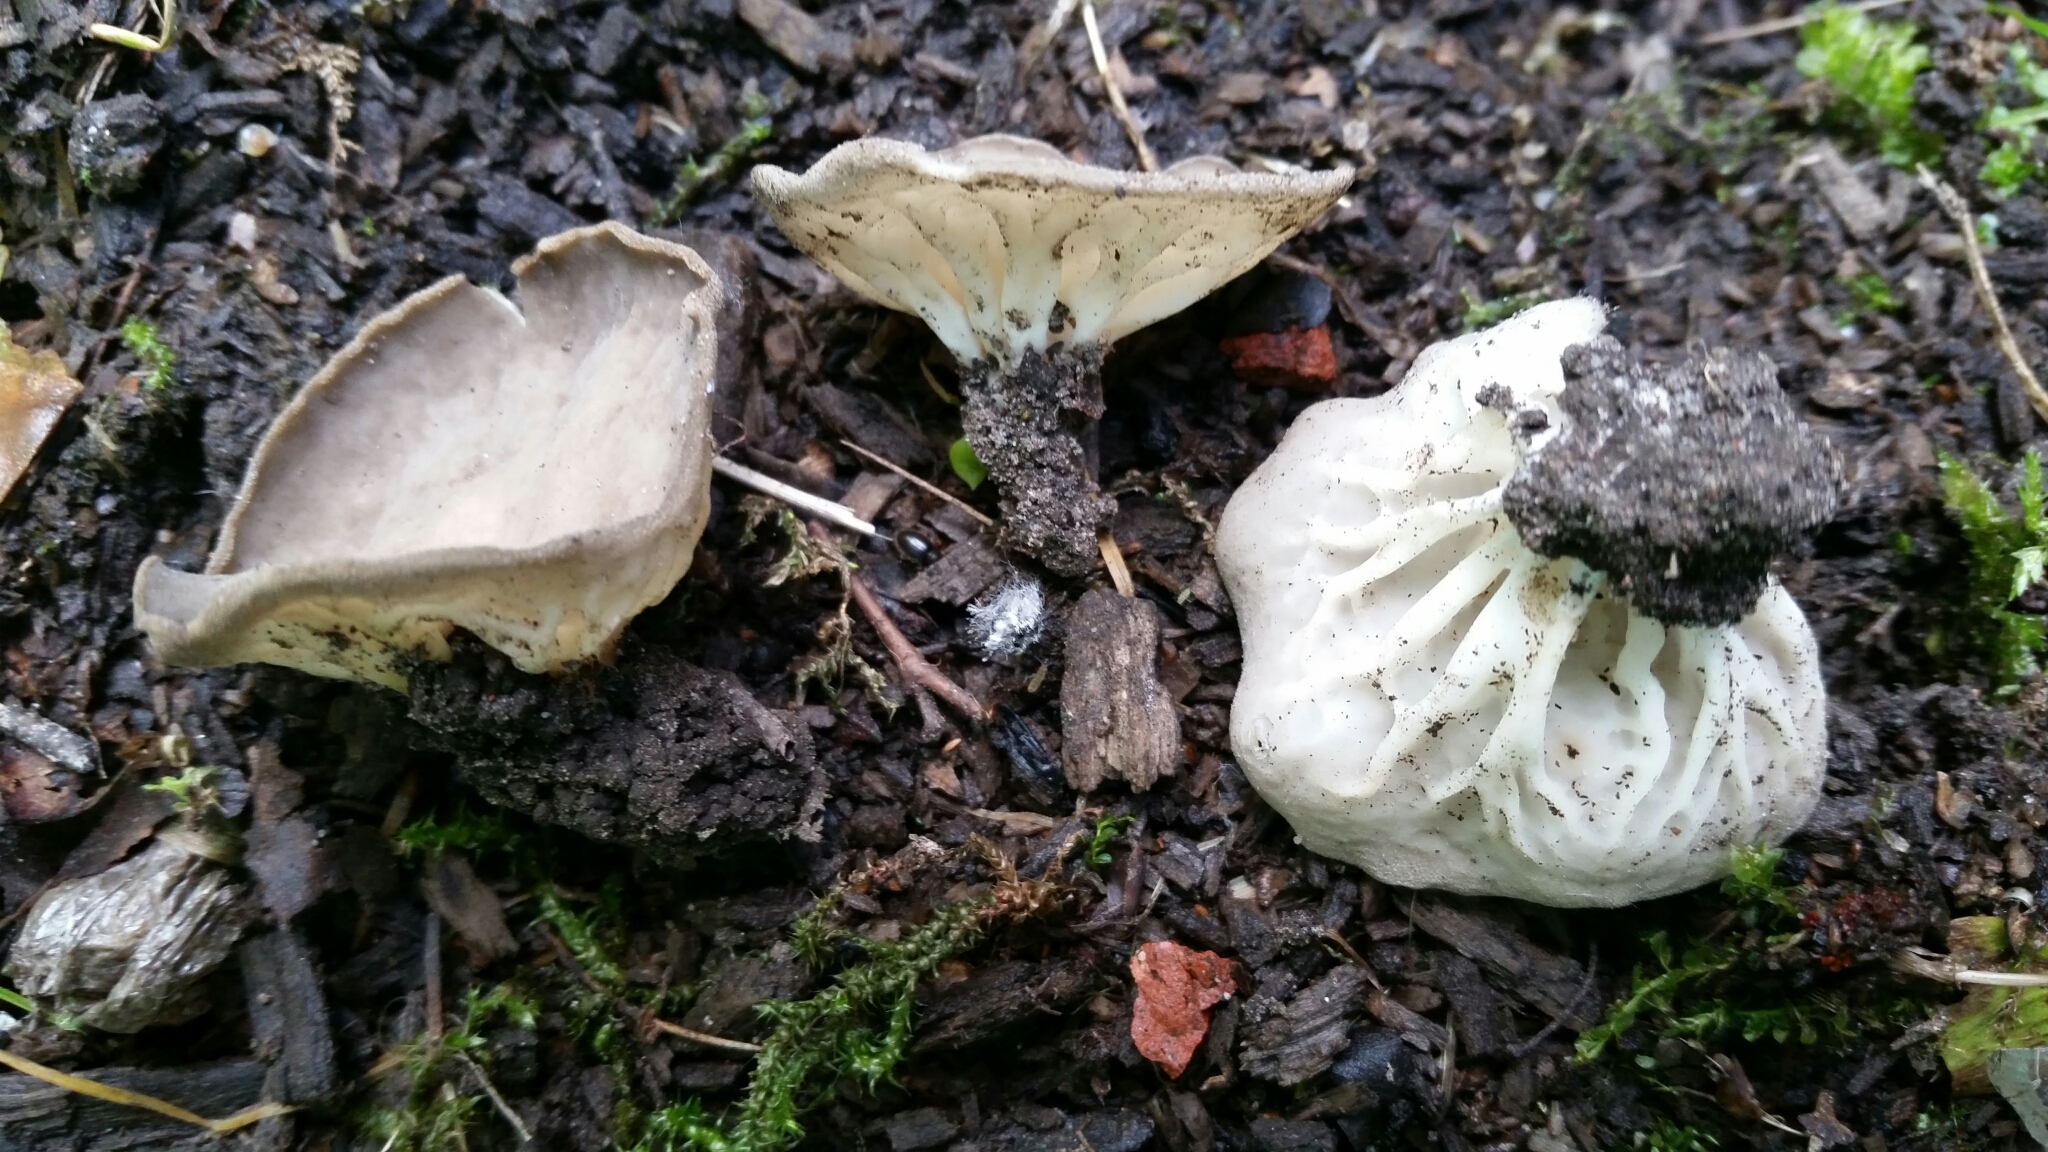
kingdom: Fungi
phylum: Ascomycota
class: Pezizomycetes
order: Pezizales
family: Helvellaceae
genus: Helvella
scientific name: Helvella costifera
